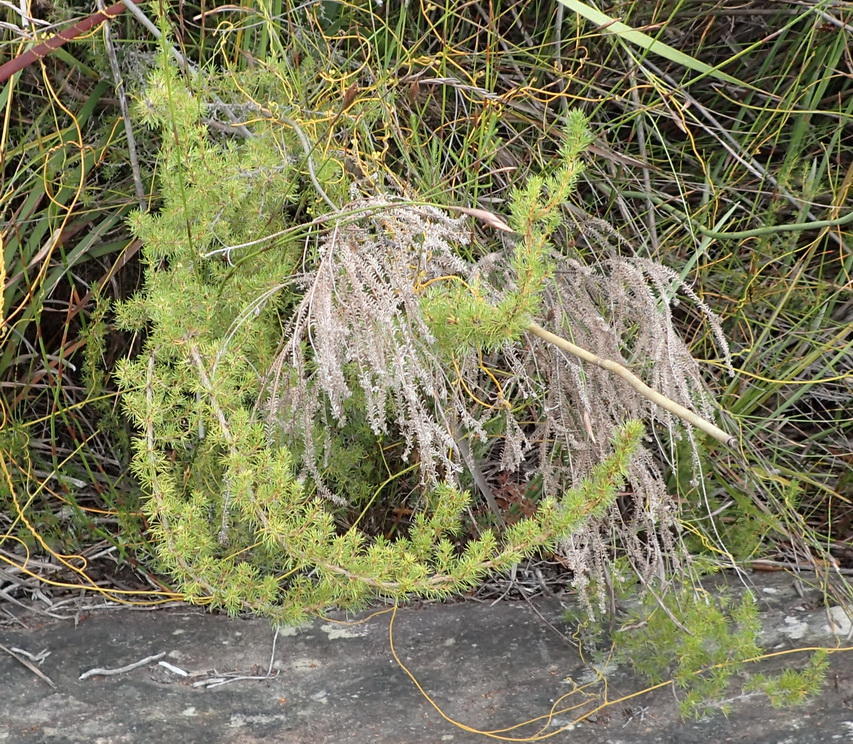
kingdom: Plantae
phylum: Tracheophyta
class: Magnoliopsida
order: Rosales
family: Rosaceae
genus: Cliffortia
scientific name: Cliffortia paucistaminea
